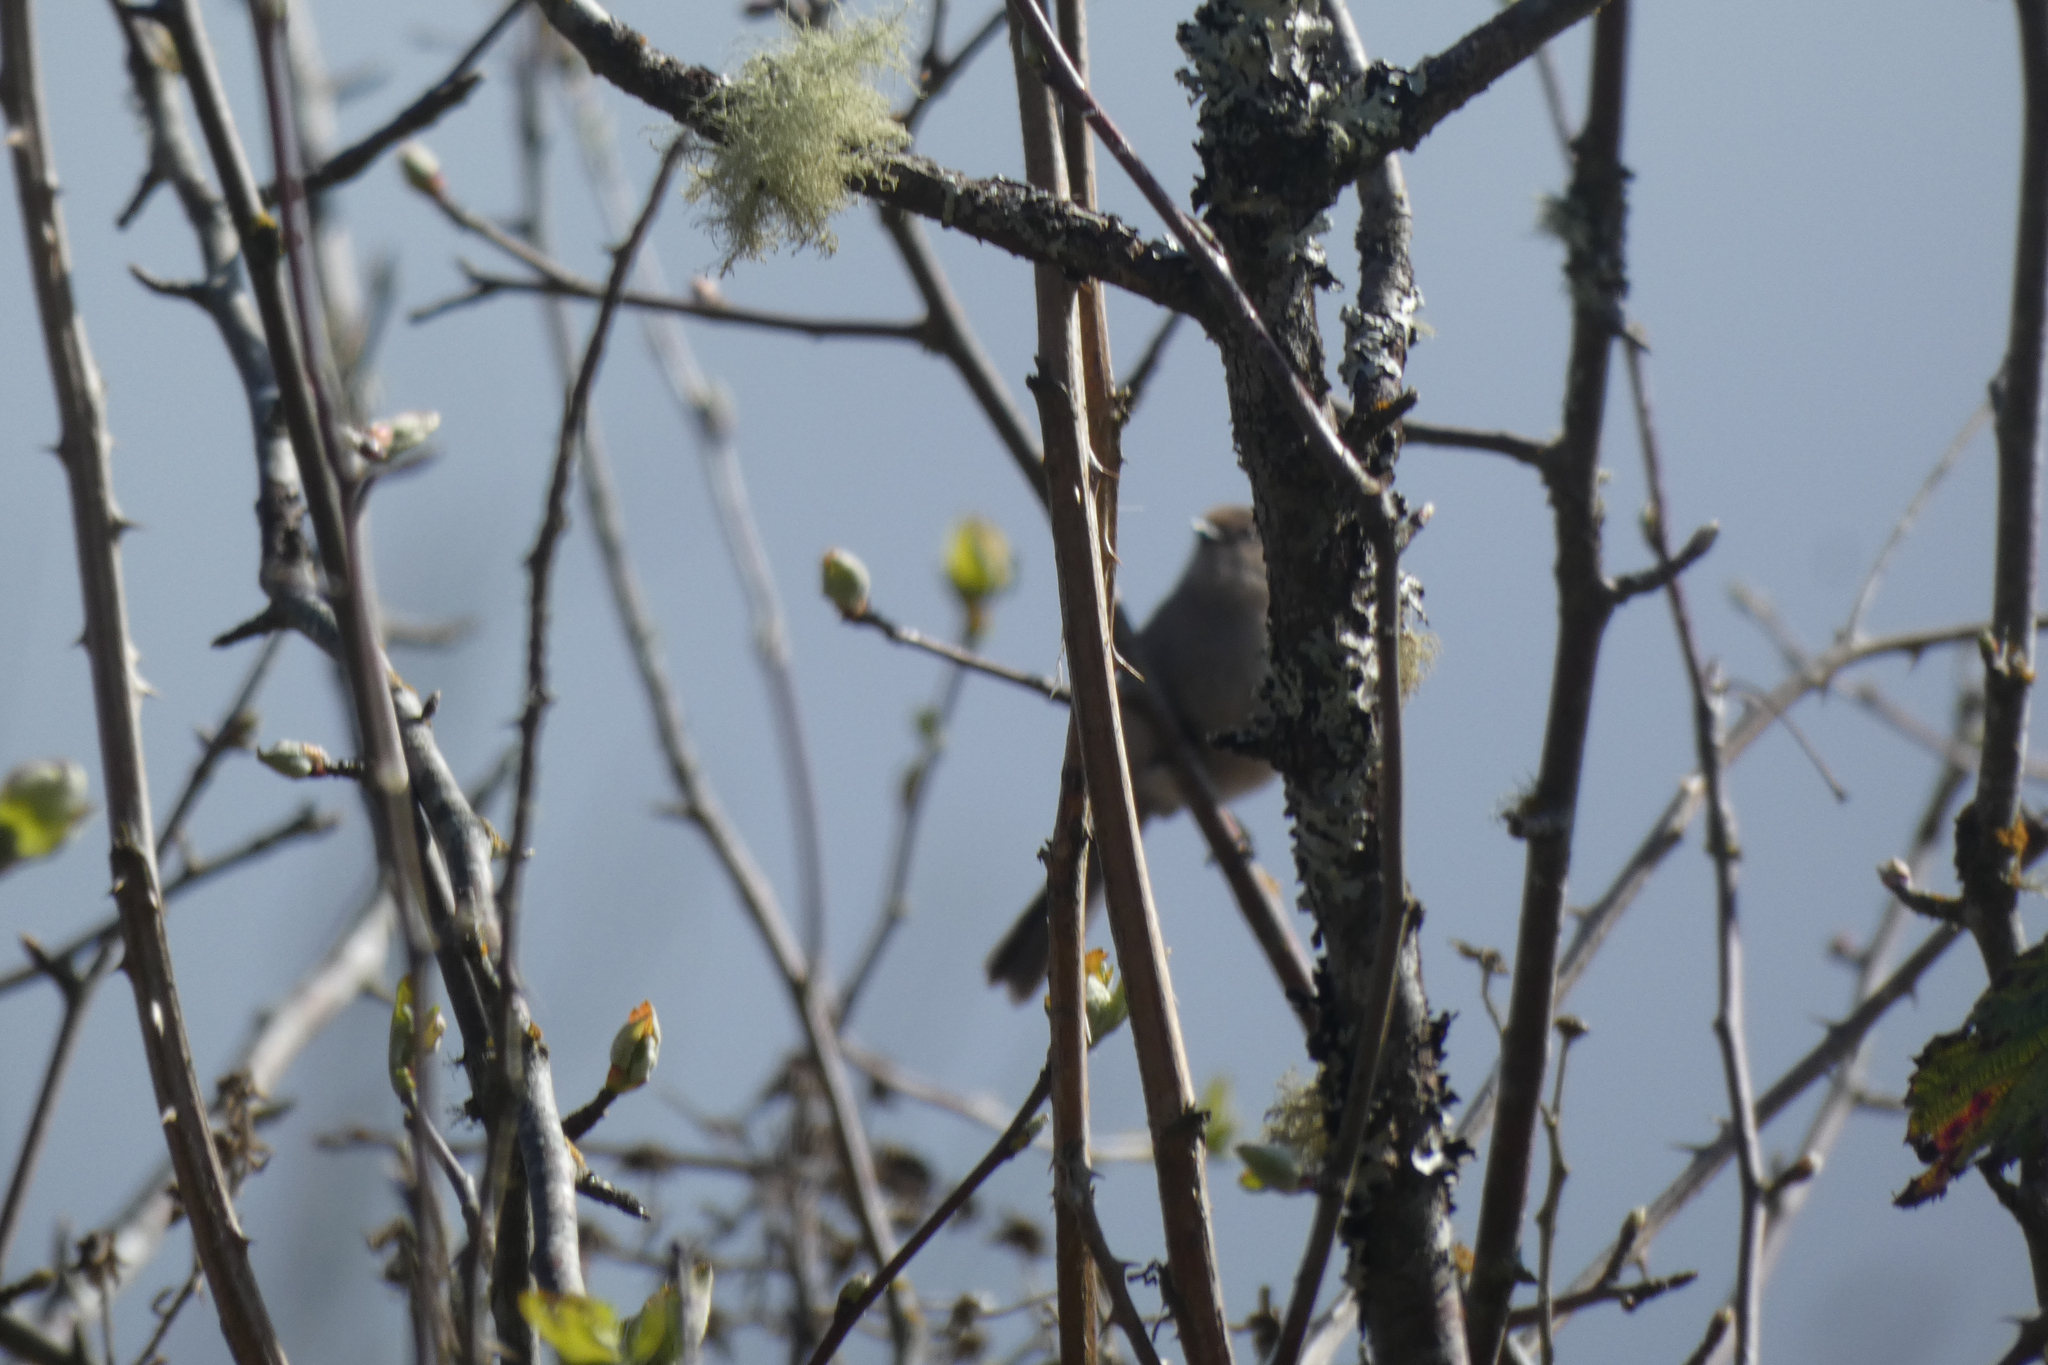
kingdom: Animalia
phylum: Chordata
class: Aves
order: Passeriformes
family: Aegithalidae
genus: Psaltriparus
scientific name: Psaltriparus minimus
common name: American bushtit
